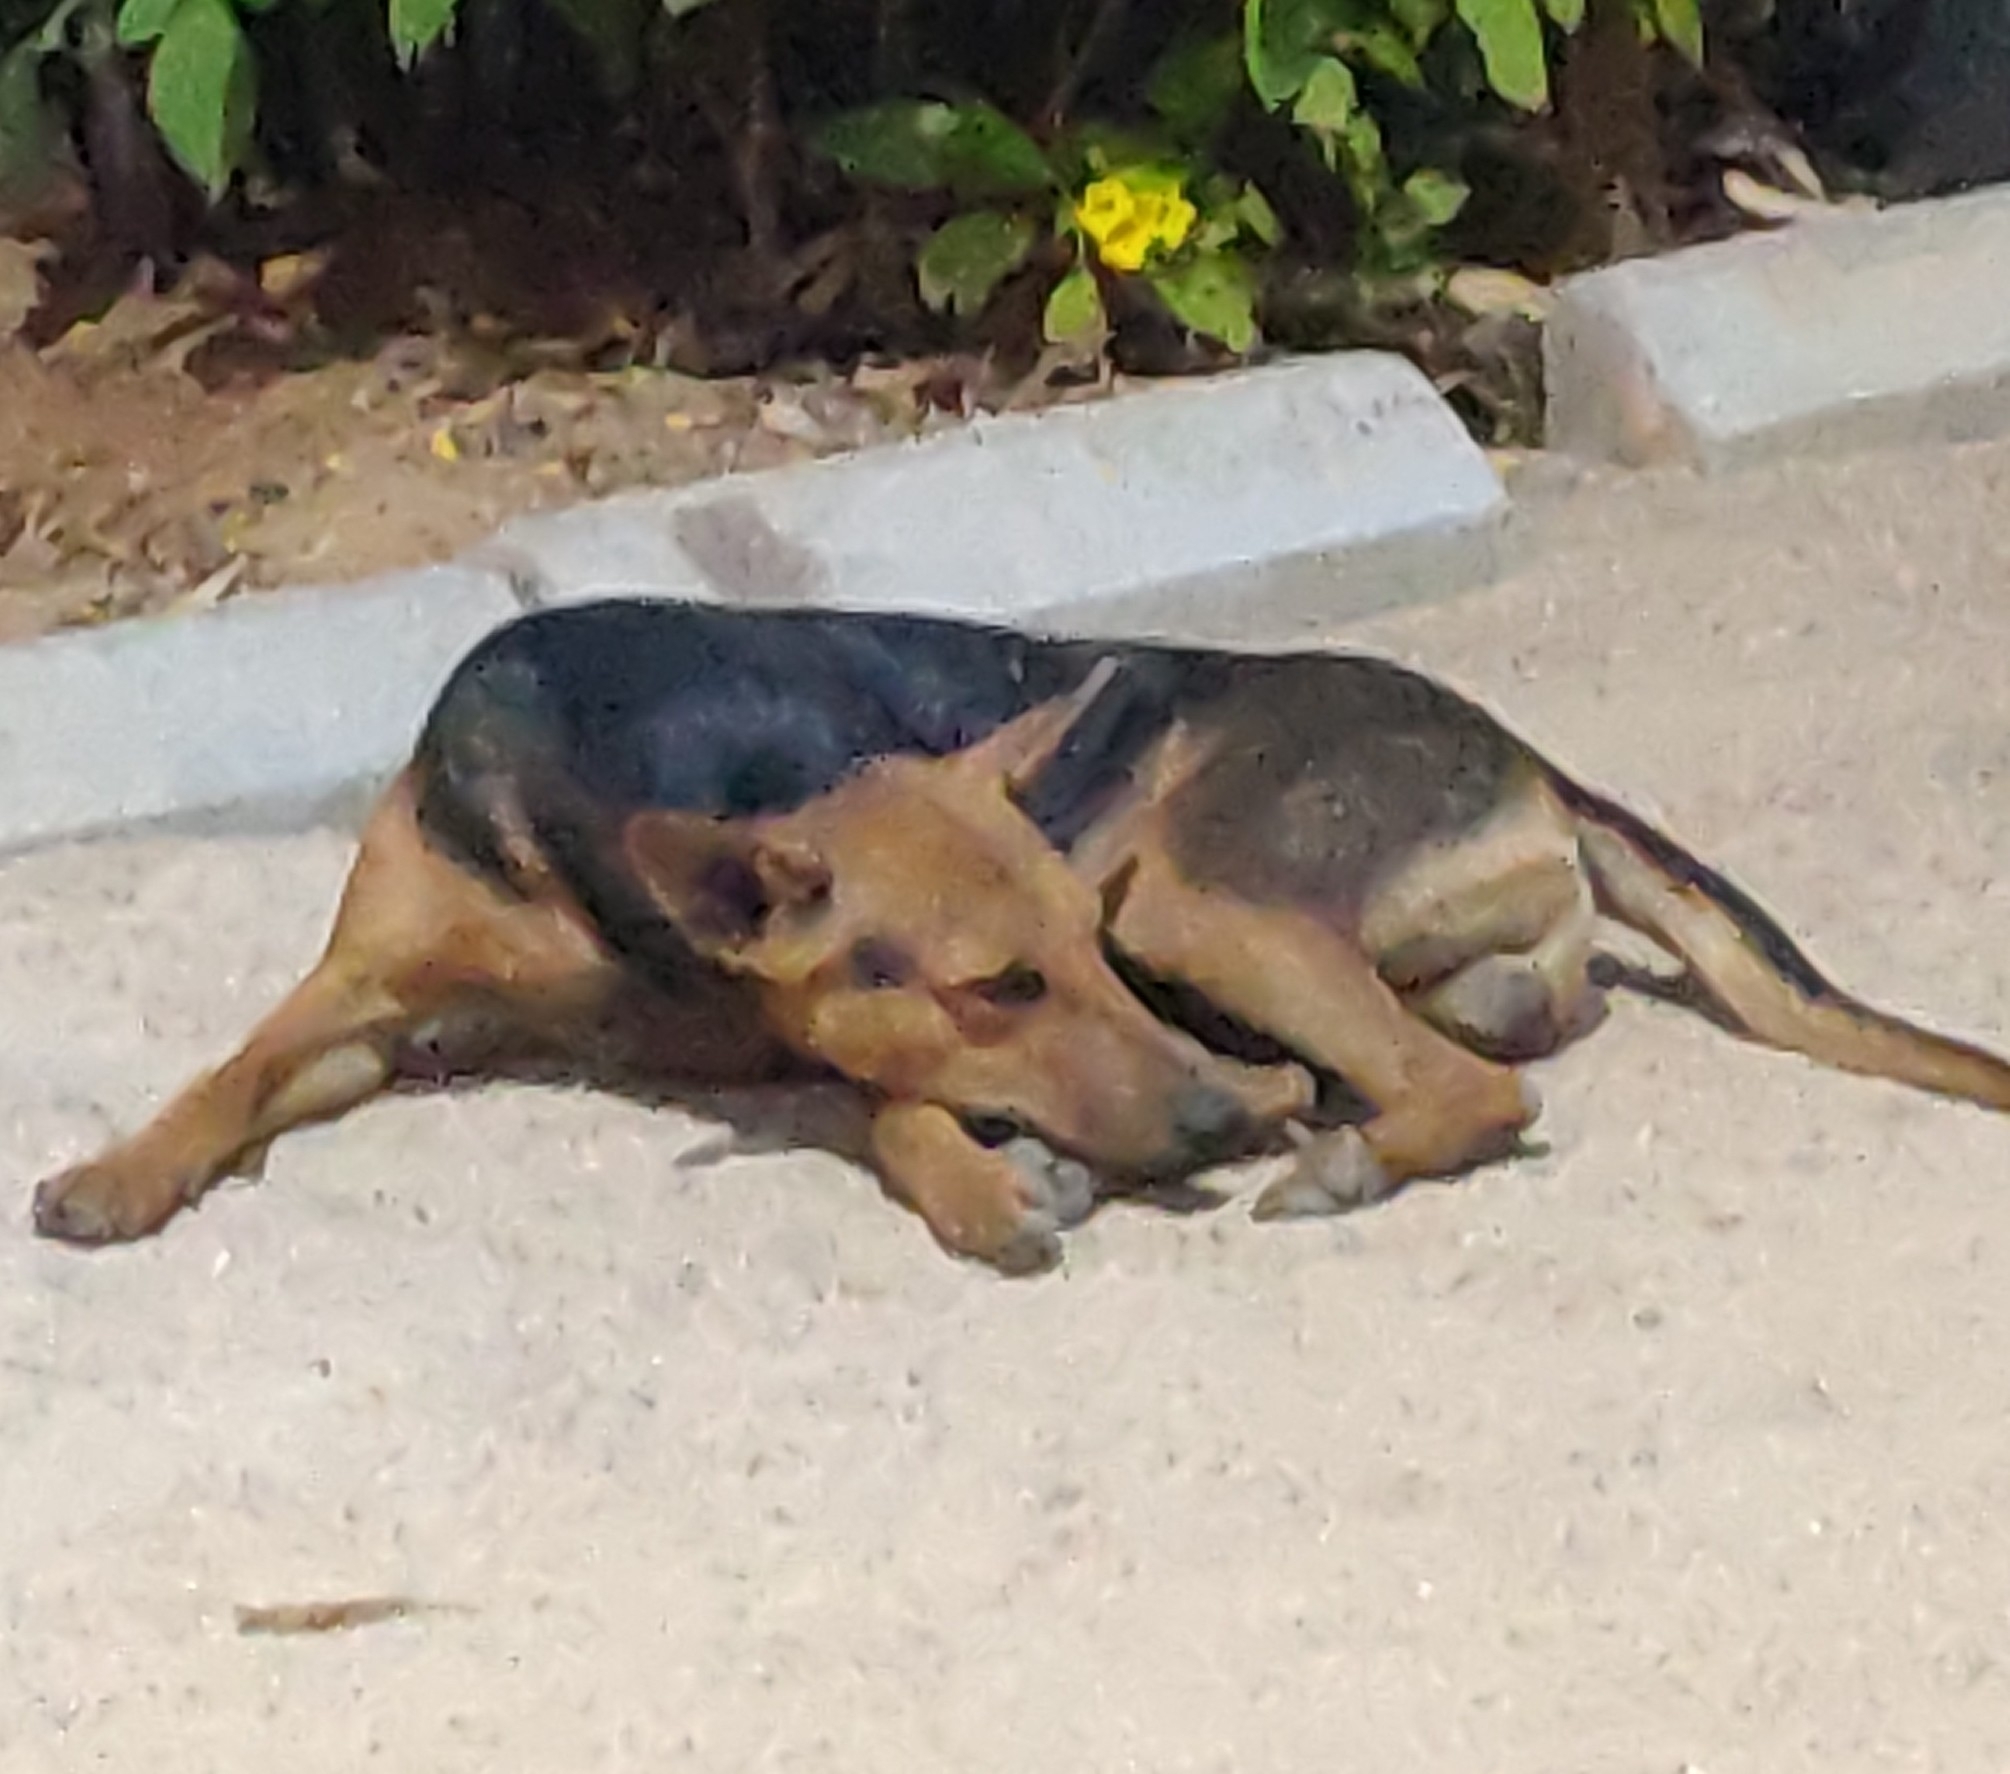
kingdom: Animalia
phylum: Chordata
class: Mammalia
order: Carnivora
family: Canidae
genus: Canis
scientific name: Canis lupus
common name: Gray wolf
